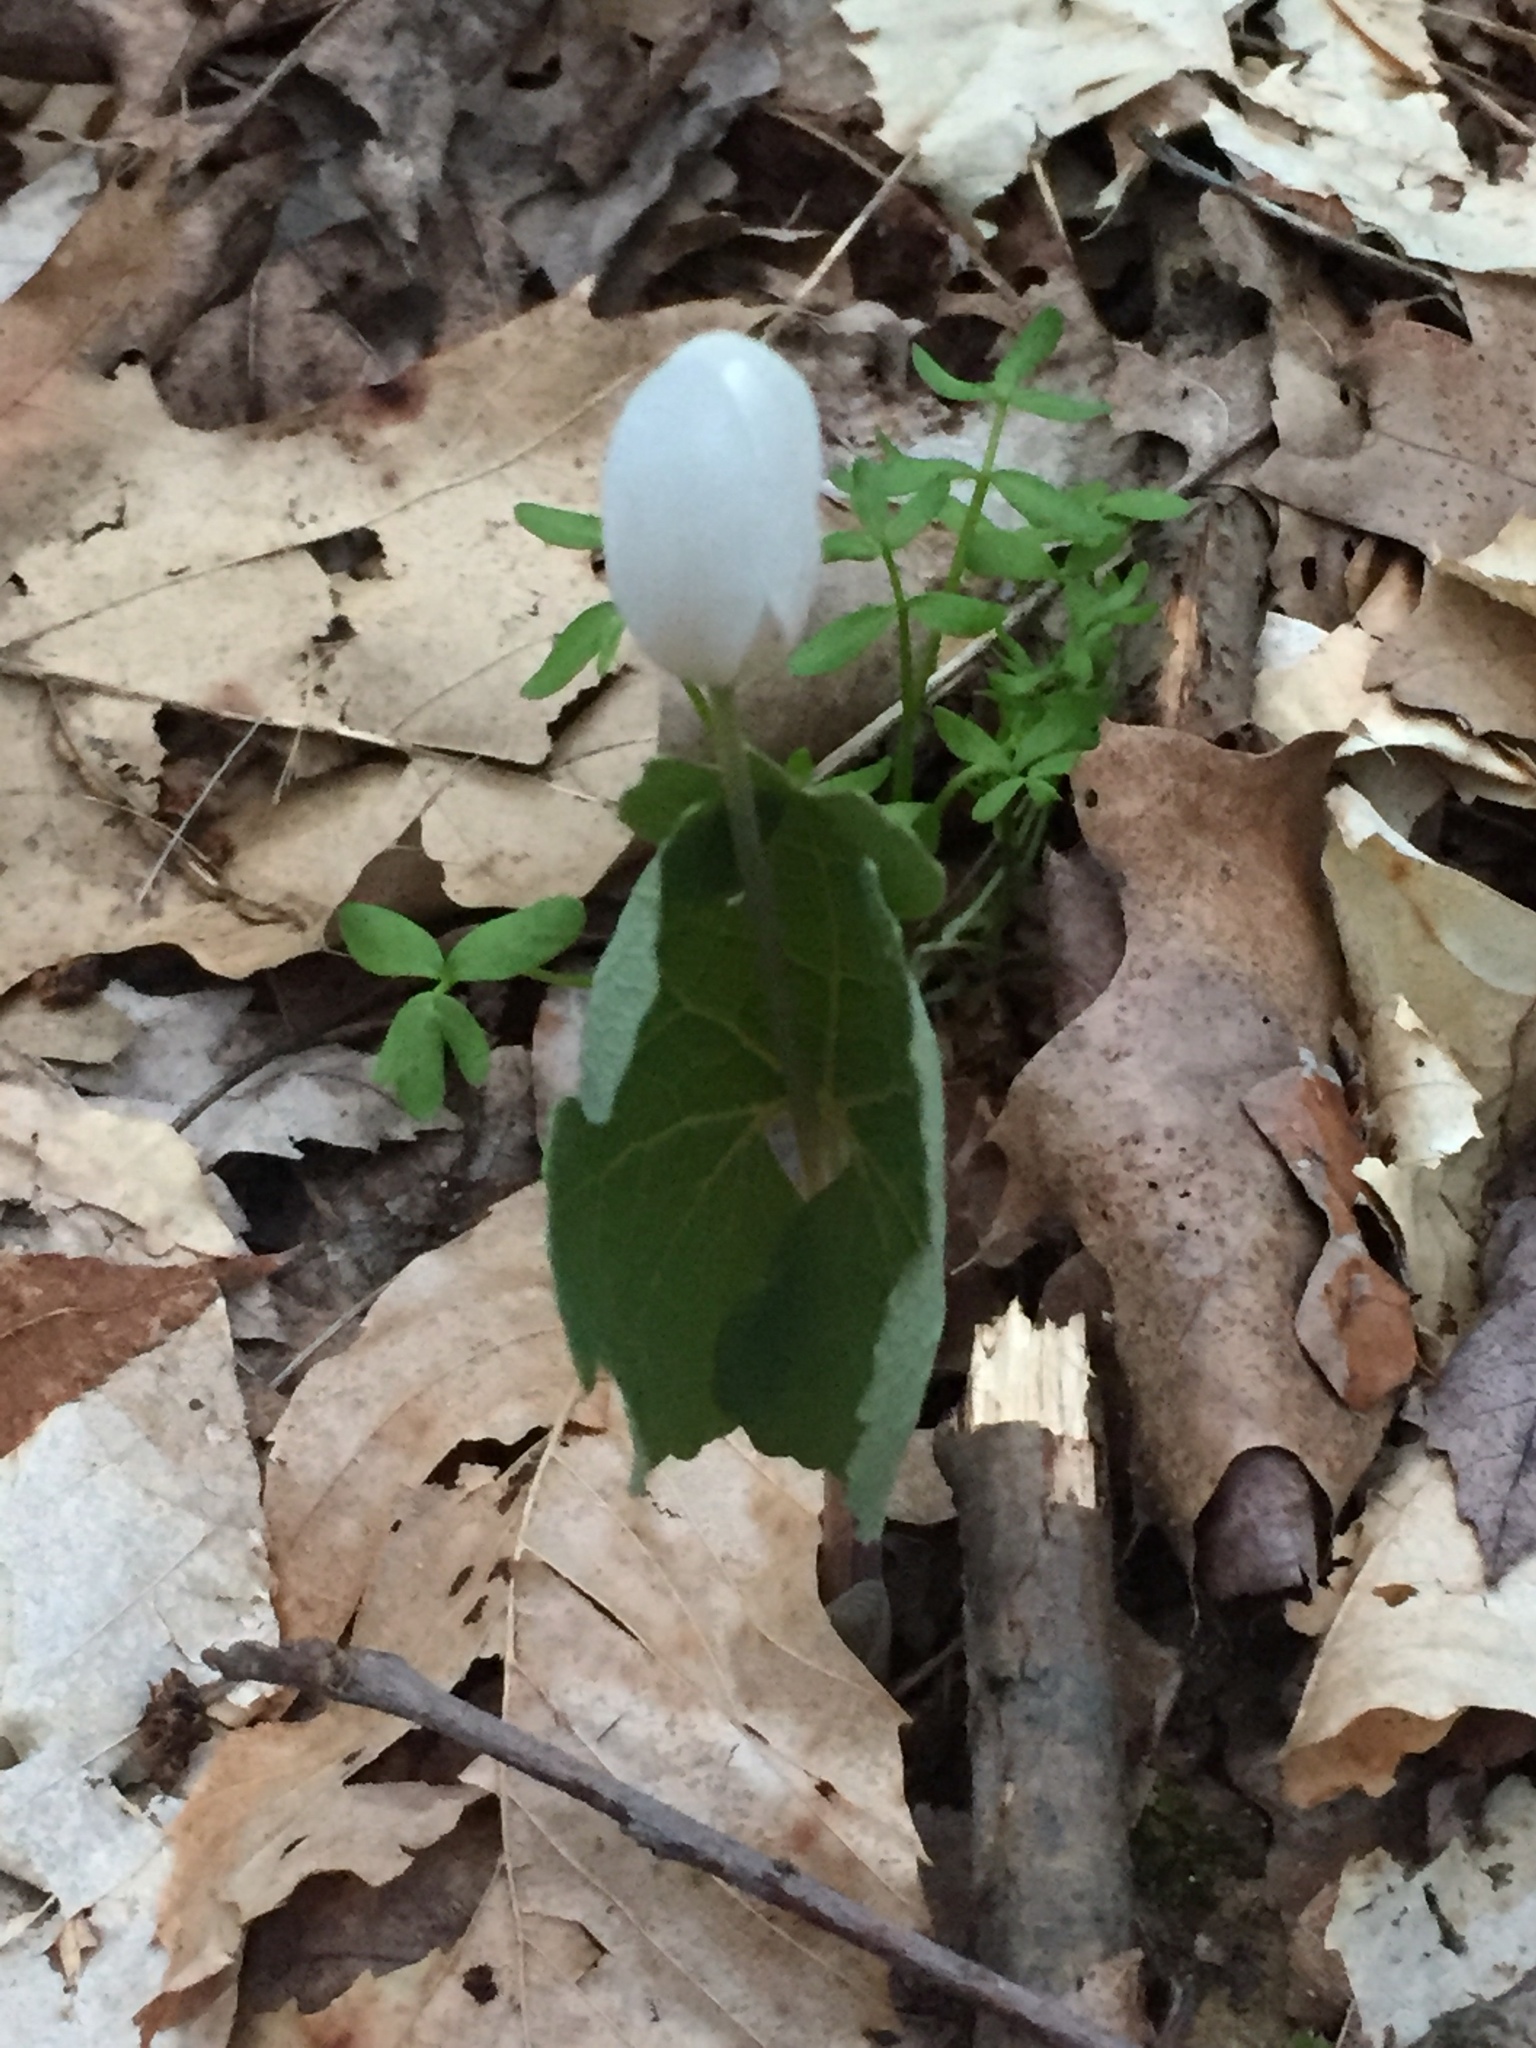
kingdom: Plantae
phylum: Tracheophyta
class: Magnoliopsida
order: Ranunculales
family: Papaveraceae
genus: Sanguinaria
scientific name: Sanguinaria canadensis
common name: Bloodroot
